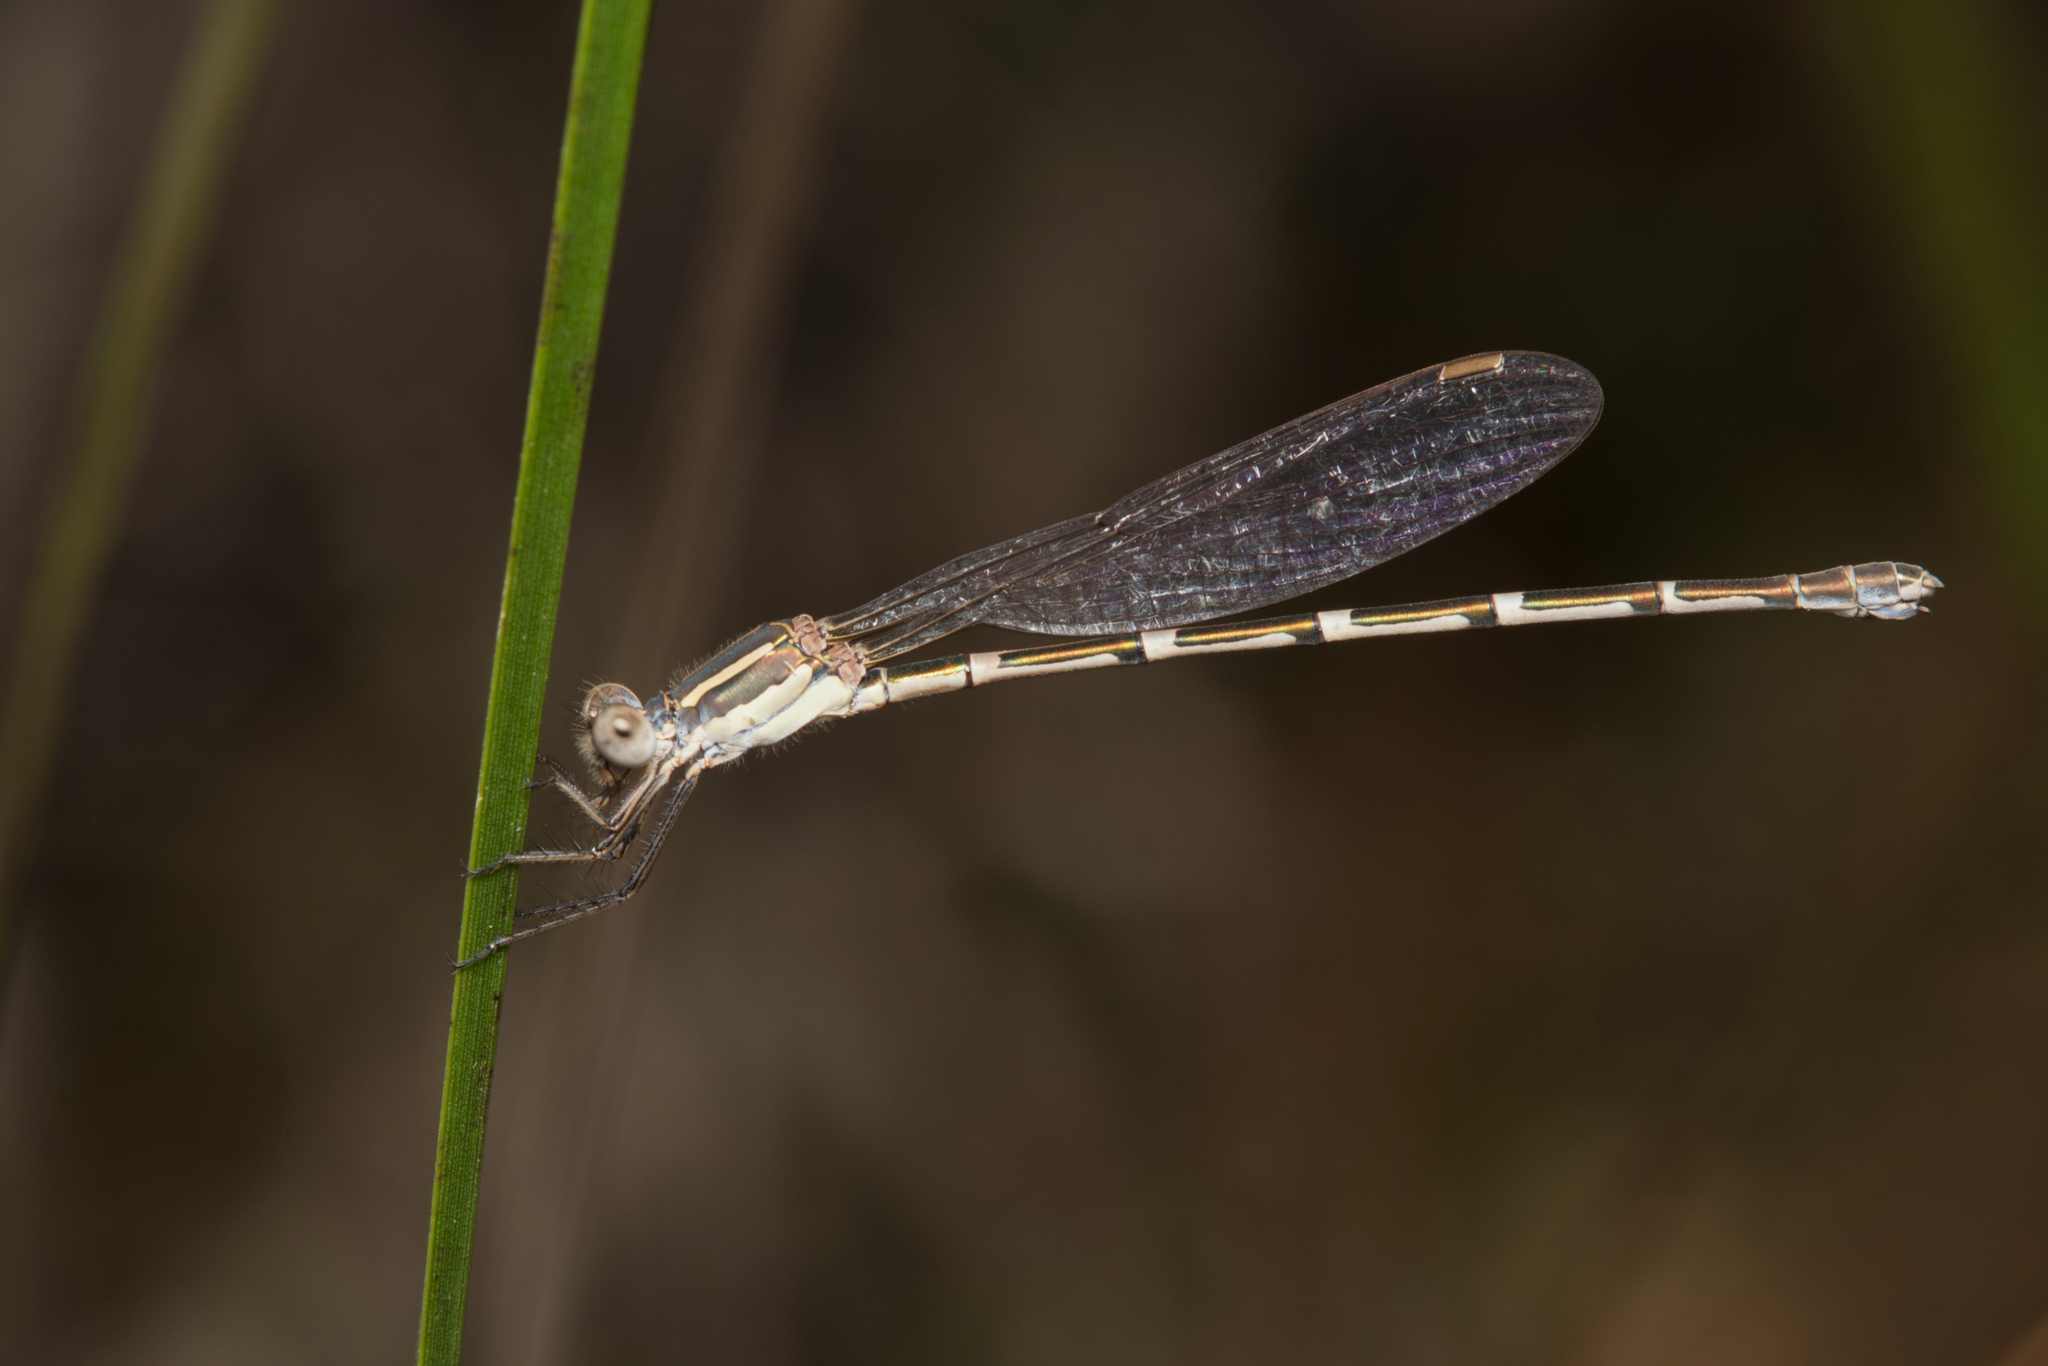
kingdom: Animalia
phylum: Arthropoda
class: Insecta
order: Odonata
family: Lestidae
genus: Austrolestes
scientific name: Austrolestes leda
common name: Wandering ringtail
